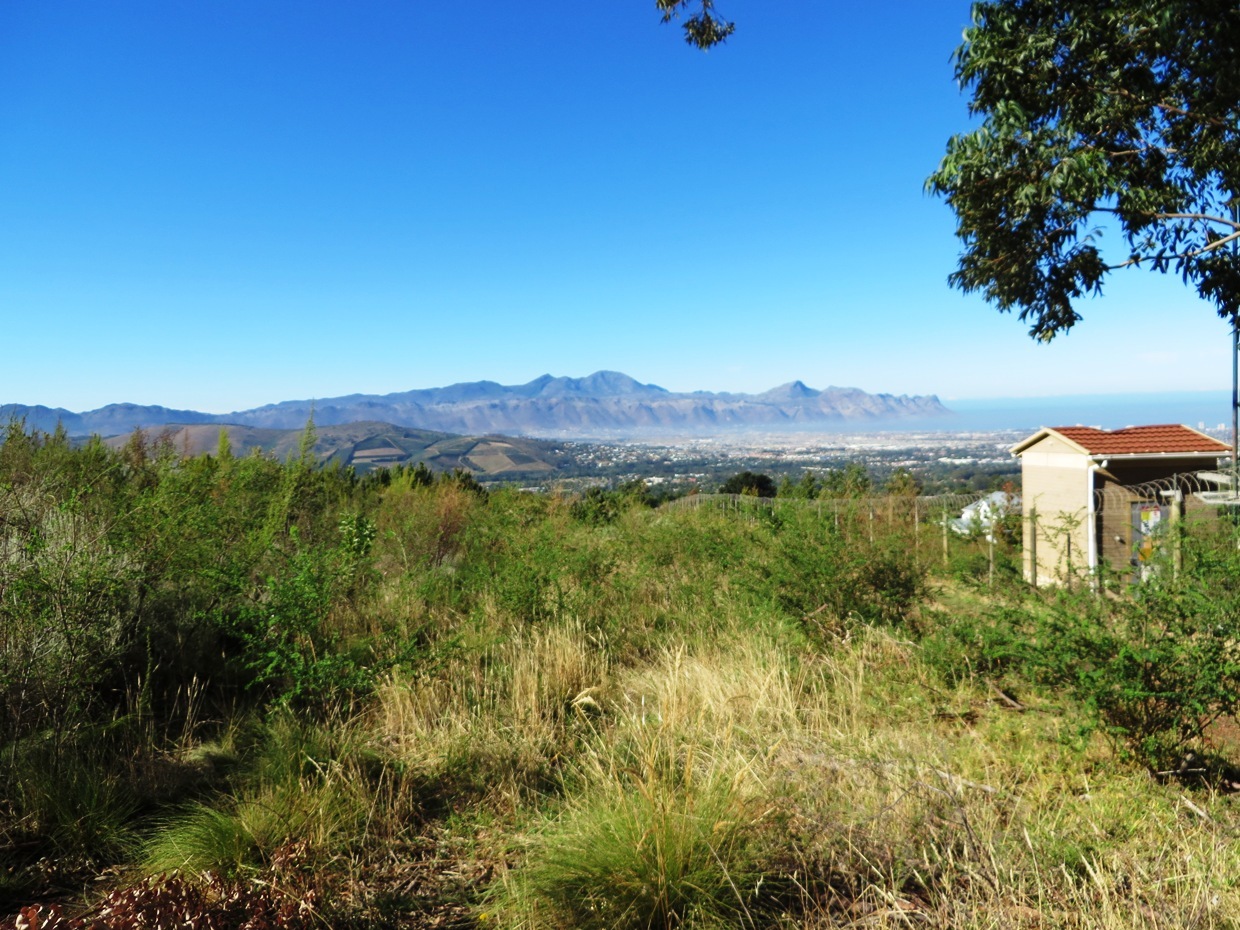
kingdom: Plantae
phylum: Tracheophyta
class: Magnoliopsida
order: Fabales
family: Fabaceae
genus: Genista
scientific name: Genista monspessulana
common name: Montpellier broom
